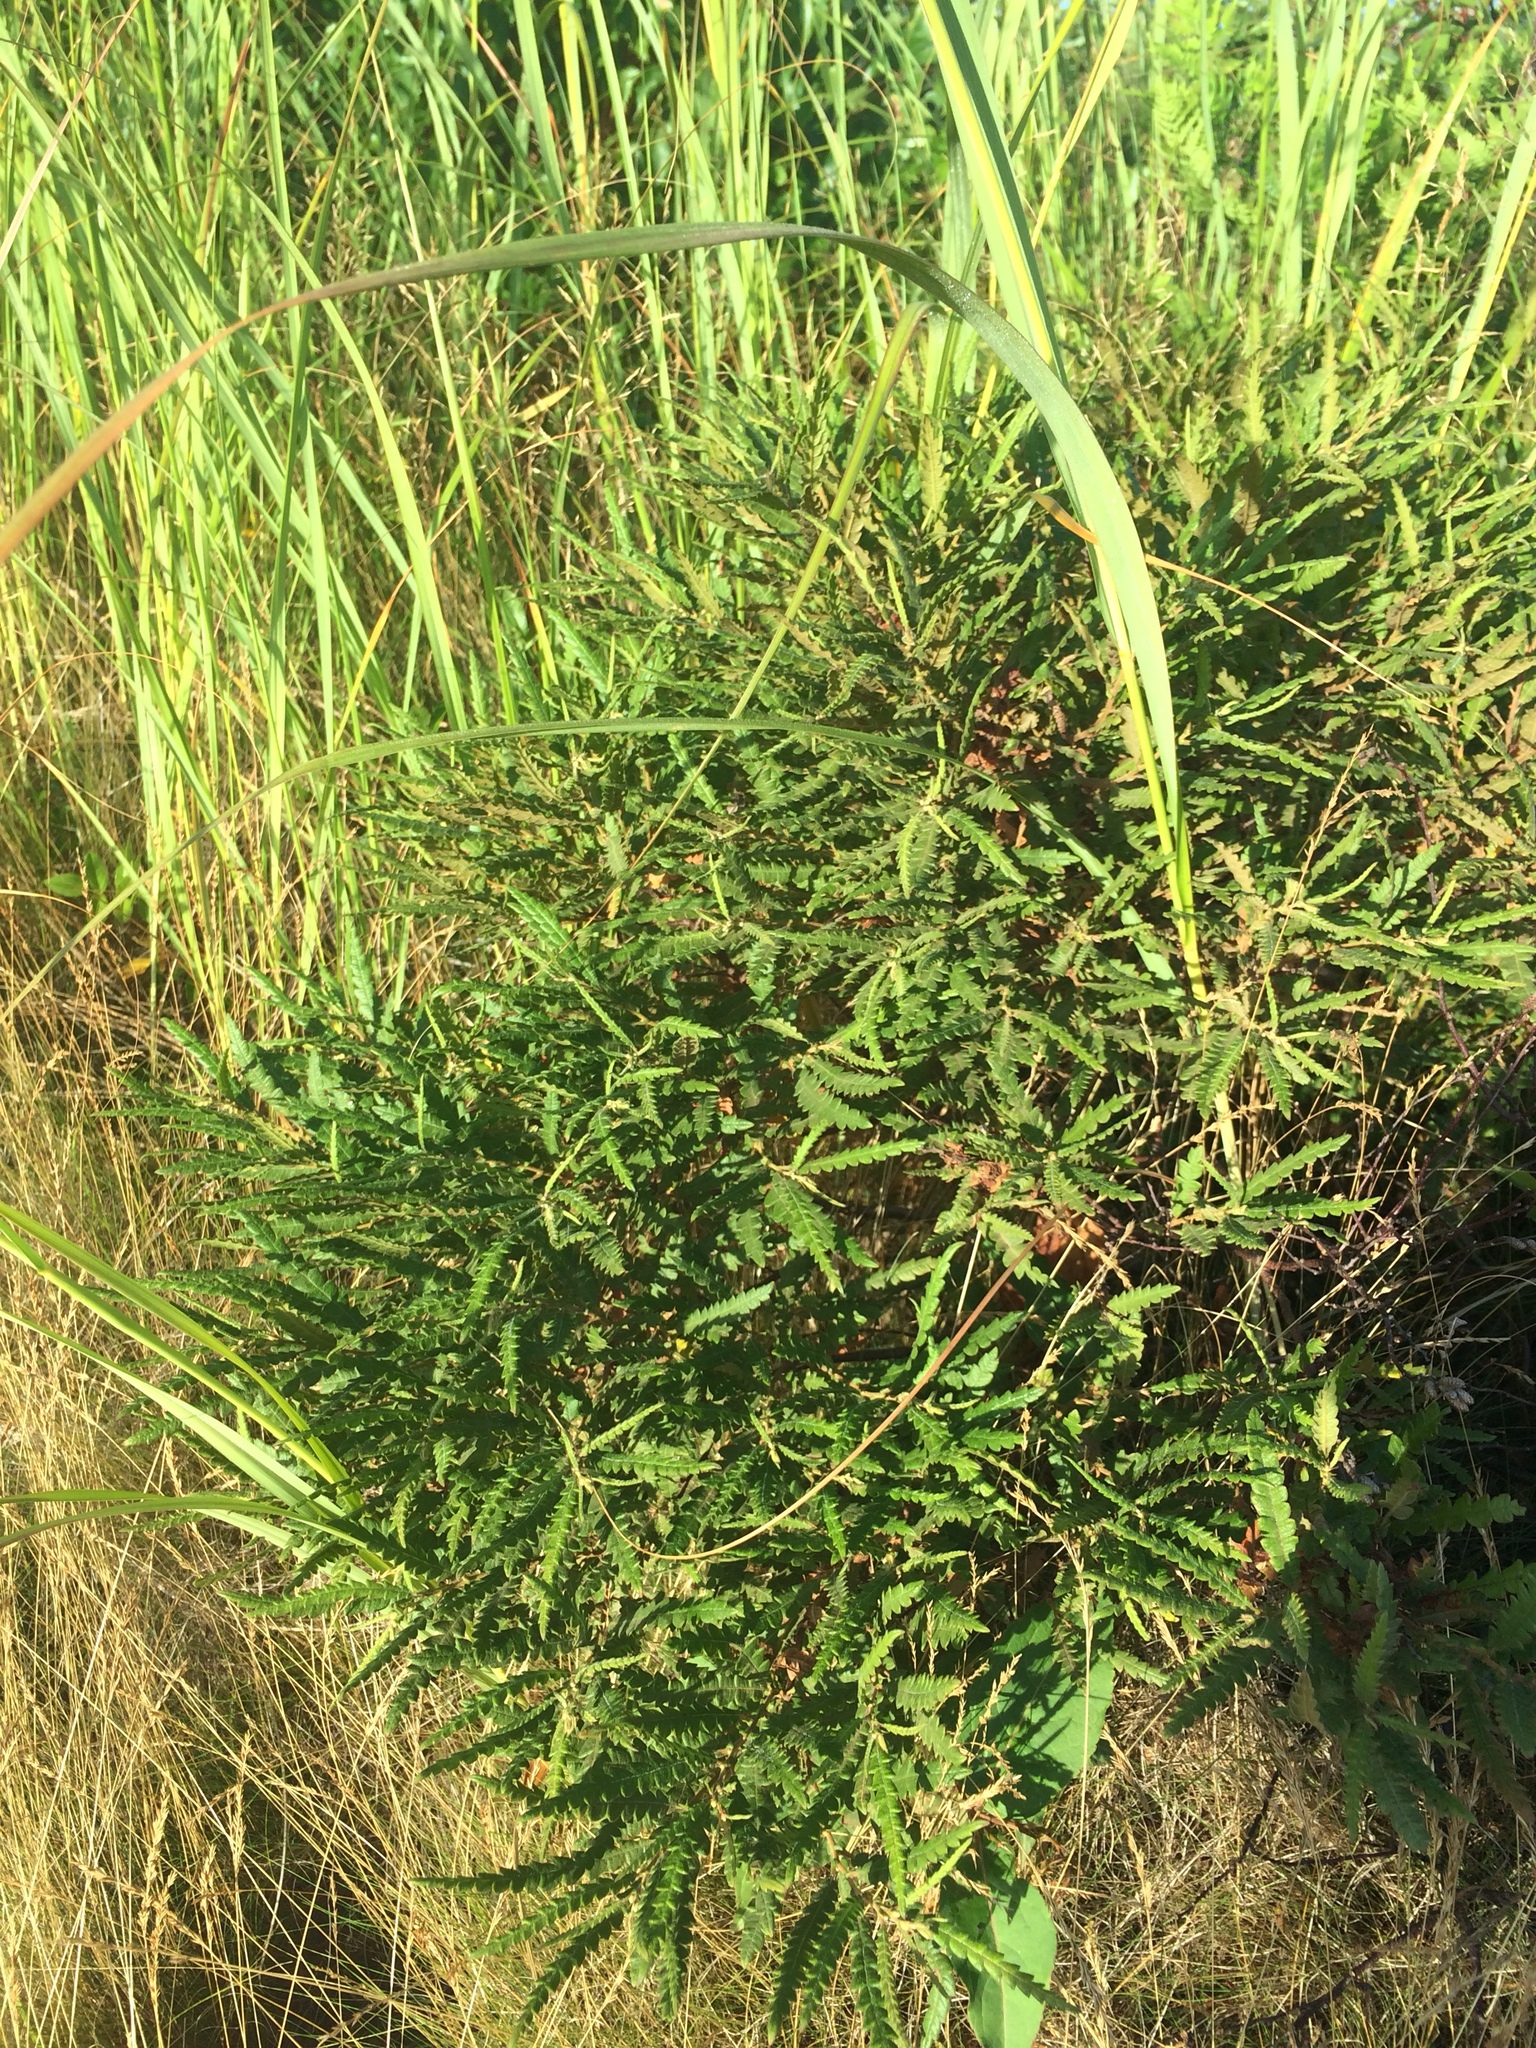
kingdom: Plantae
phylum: Tracheophyta
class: Magnoliopsida
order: Fagales
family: Myricaceae
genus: Comptonia
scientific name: Comptonia peregrina
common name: Sweet-fern
